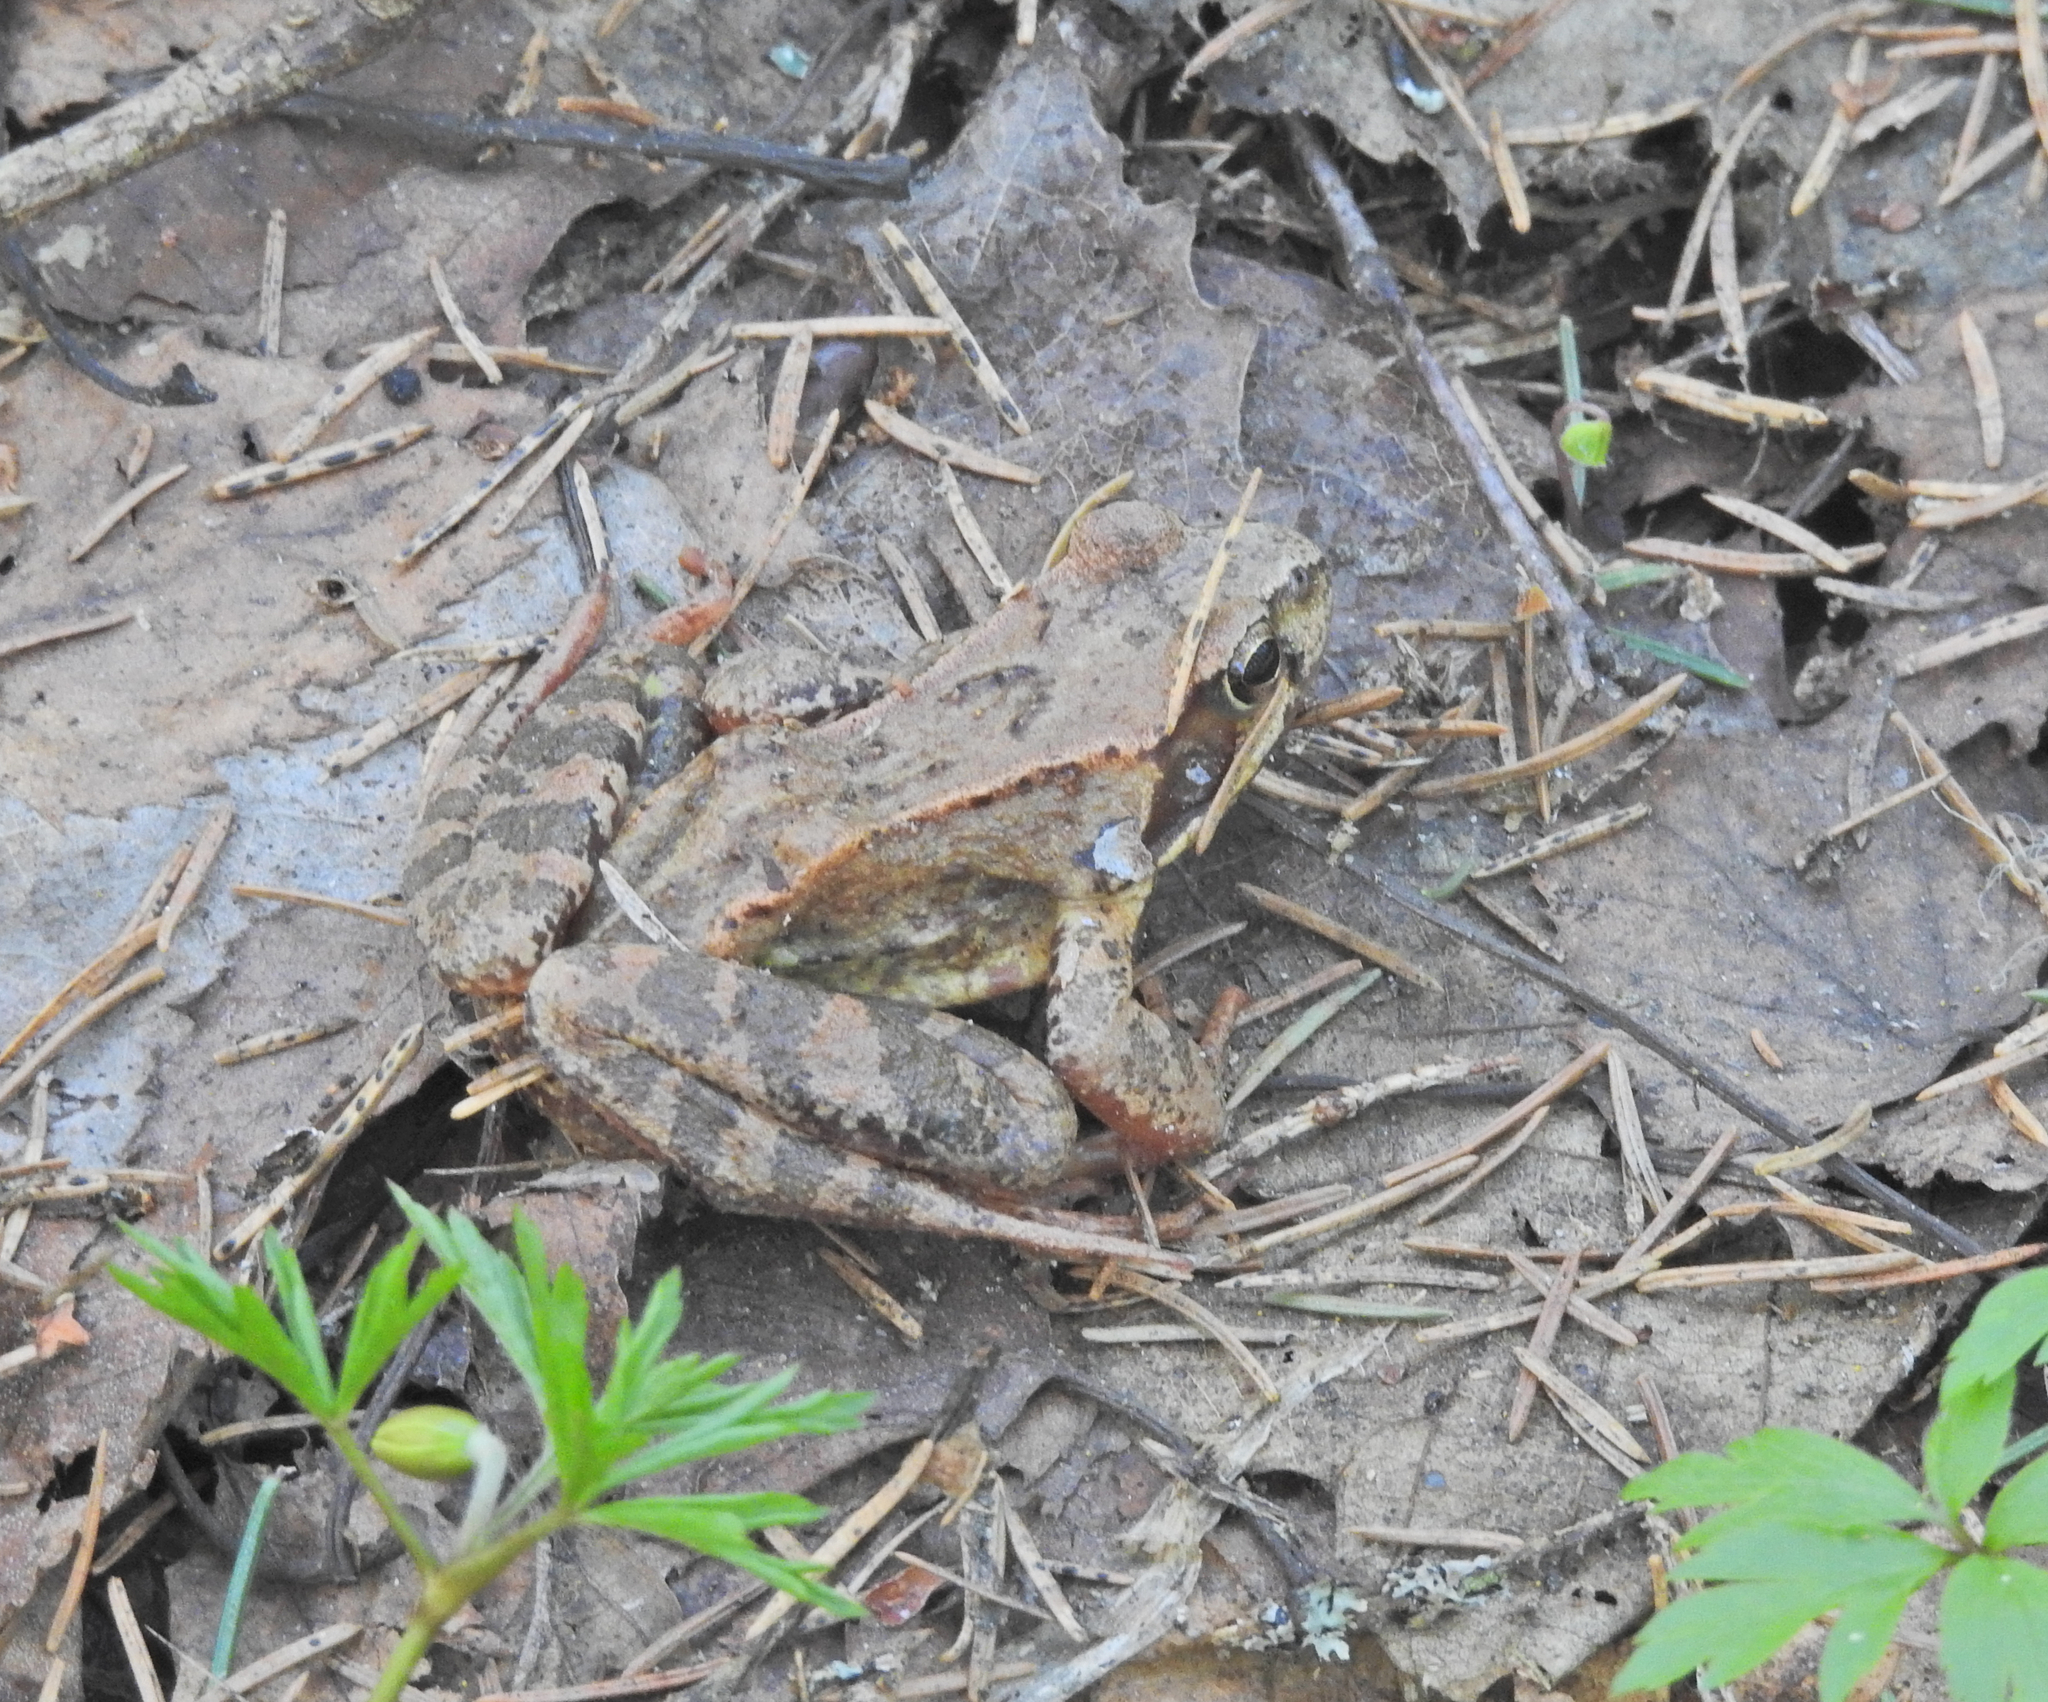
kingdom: Animalia
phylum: Chordata
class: Amphibia
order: Anura
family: Ranidae
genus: Rana
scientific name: Rana temporaria
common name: Common frog
